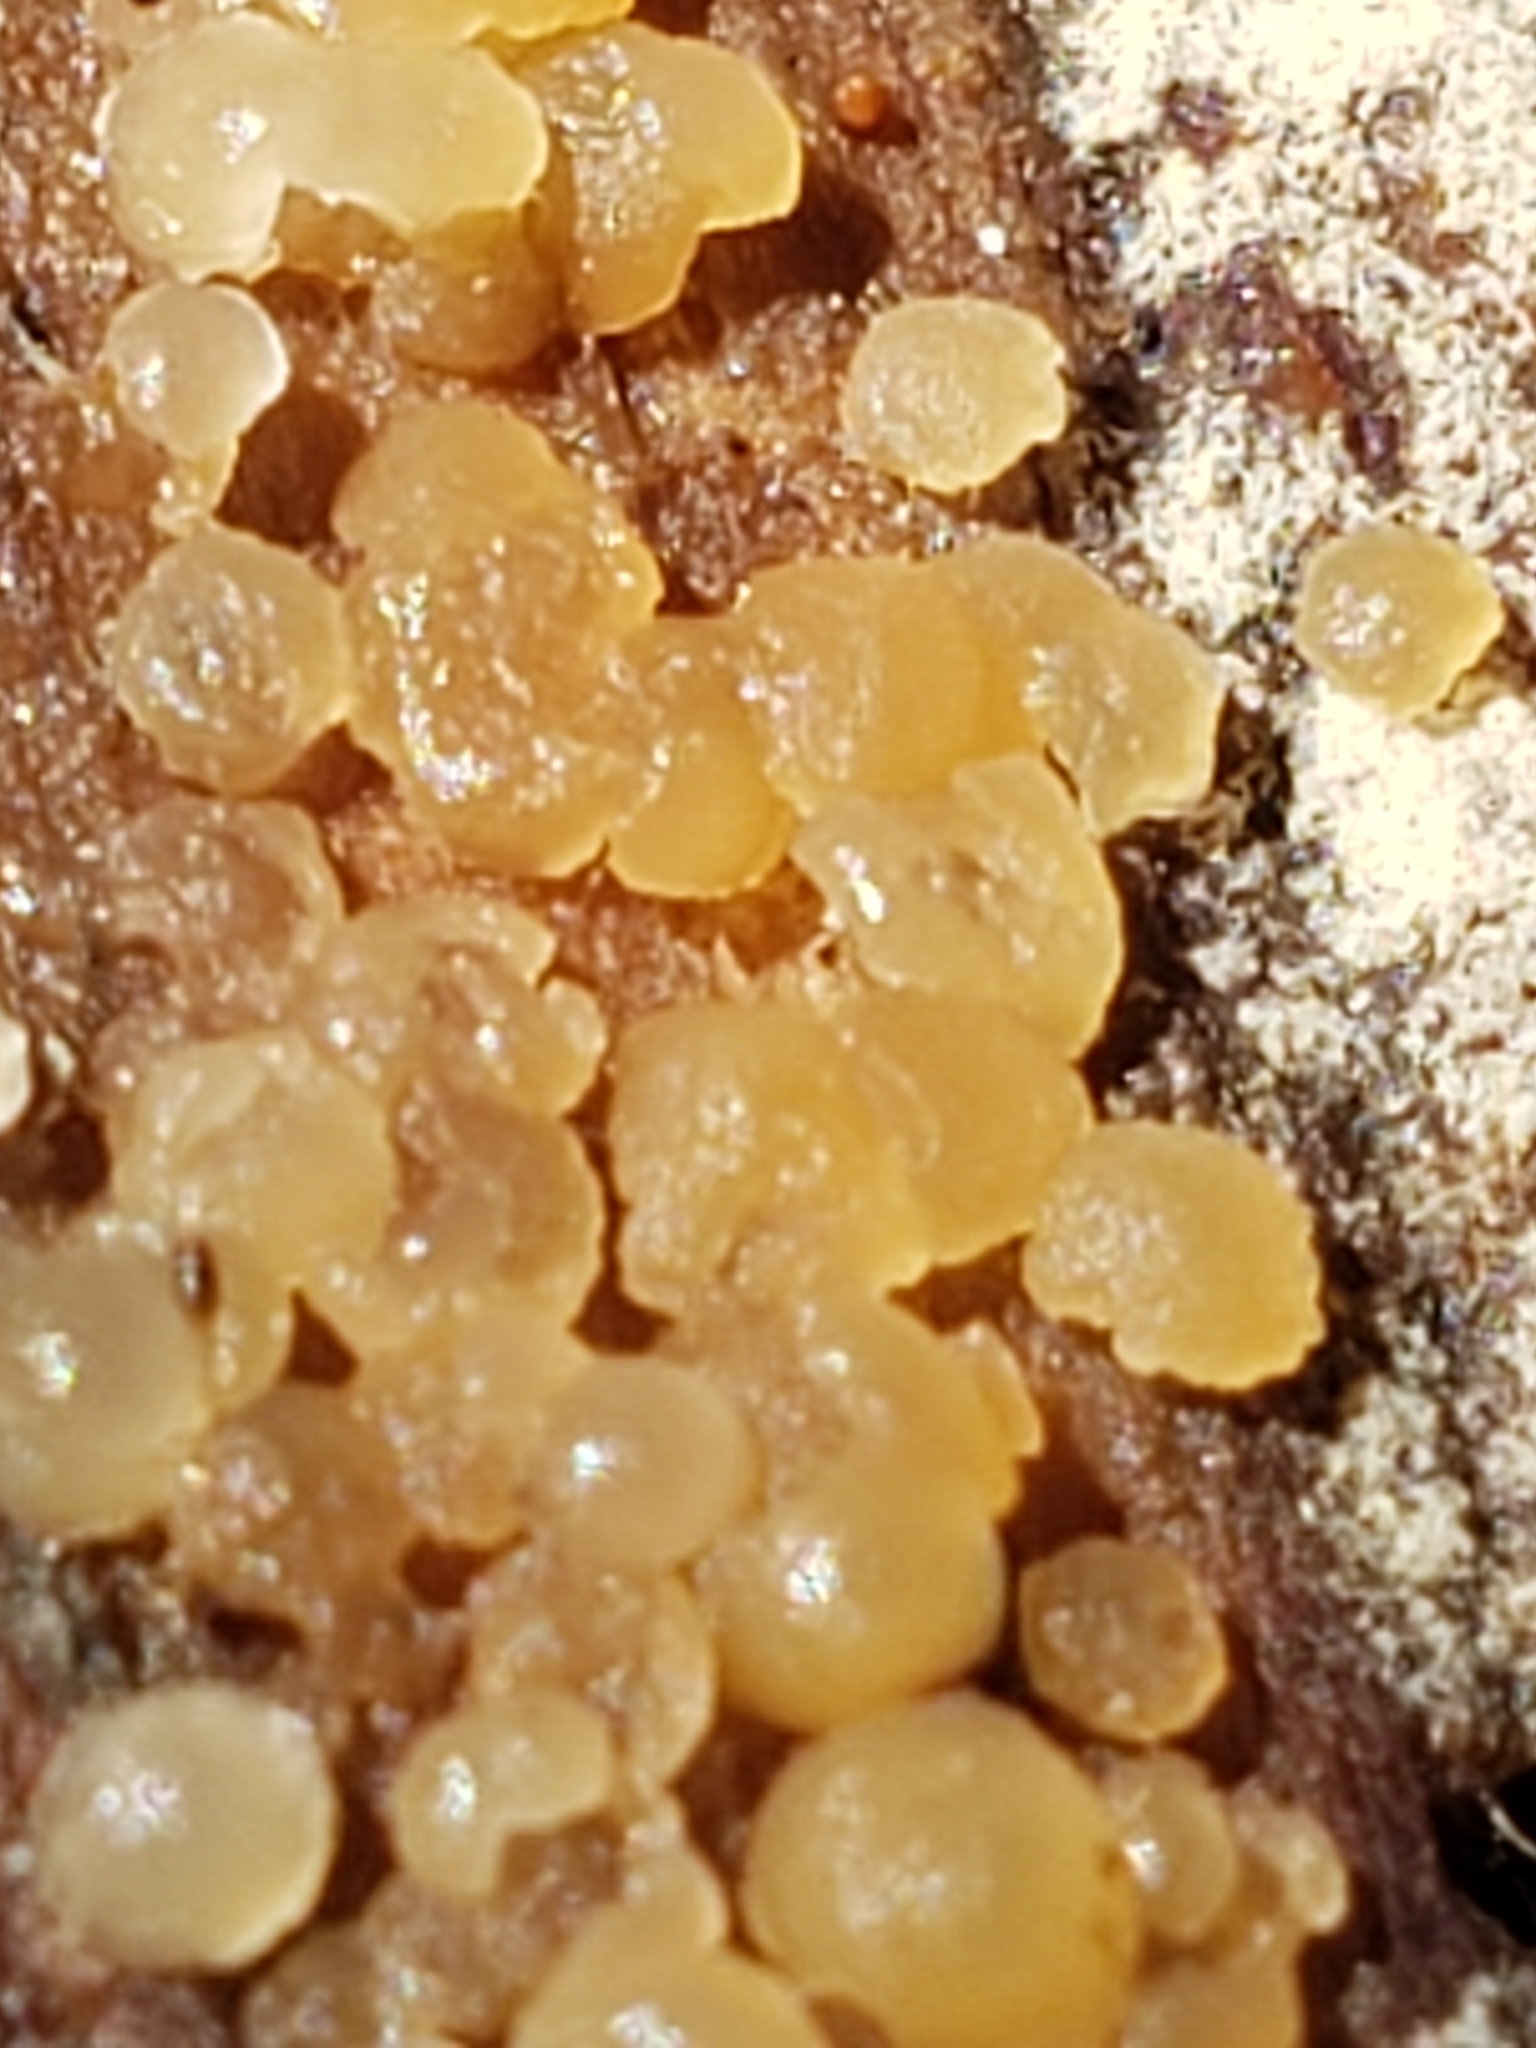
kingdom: Fungi
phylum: Basidiomycota
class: Dacrymycetes
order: Dacrymycetales
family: Dacrymycetaceae
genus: Dacrymyces
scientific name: Dacrymyces stillatus
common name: Common jelly spot
